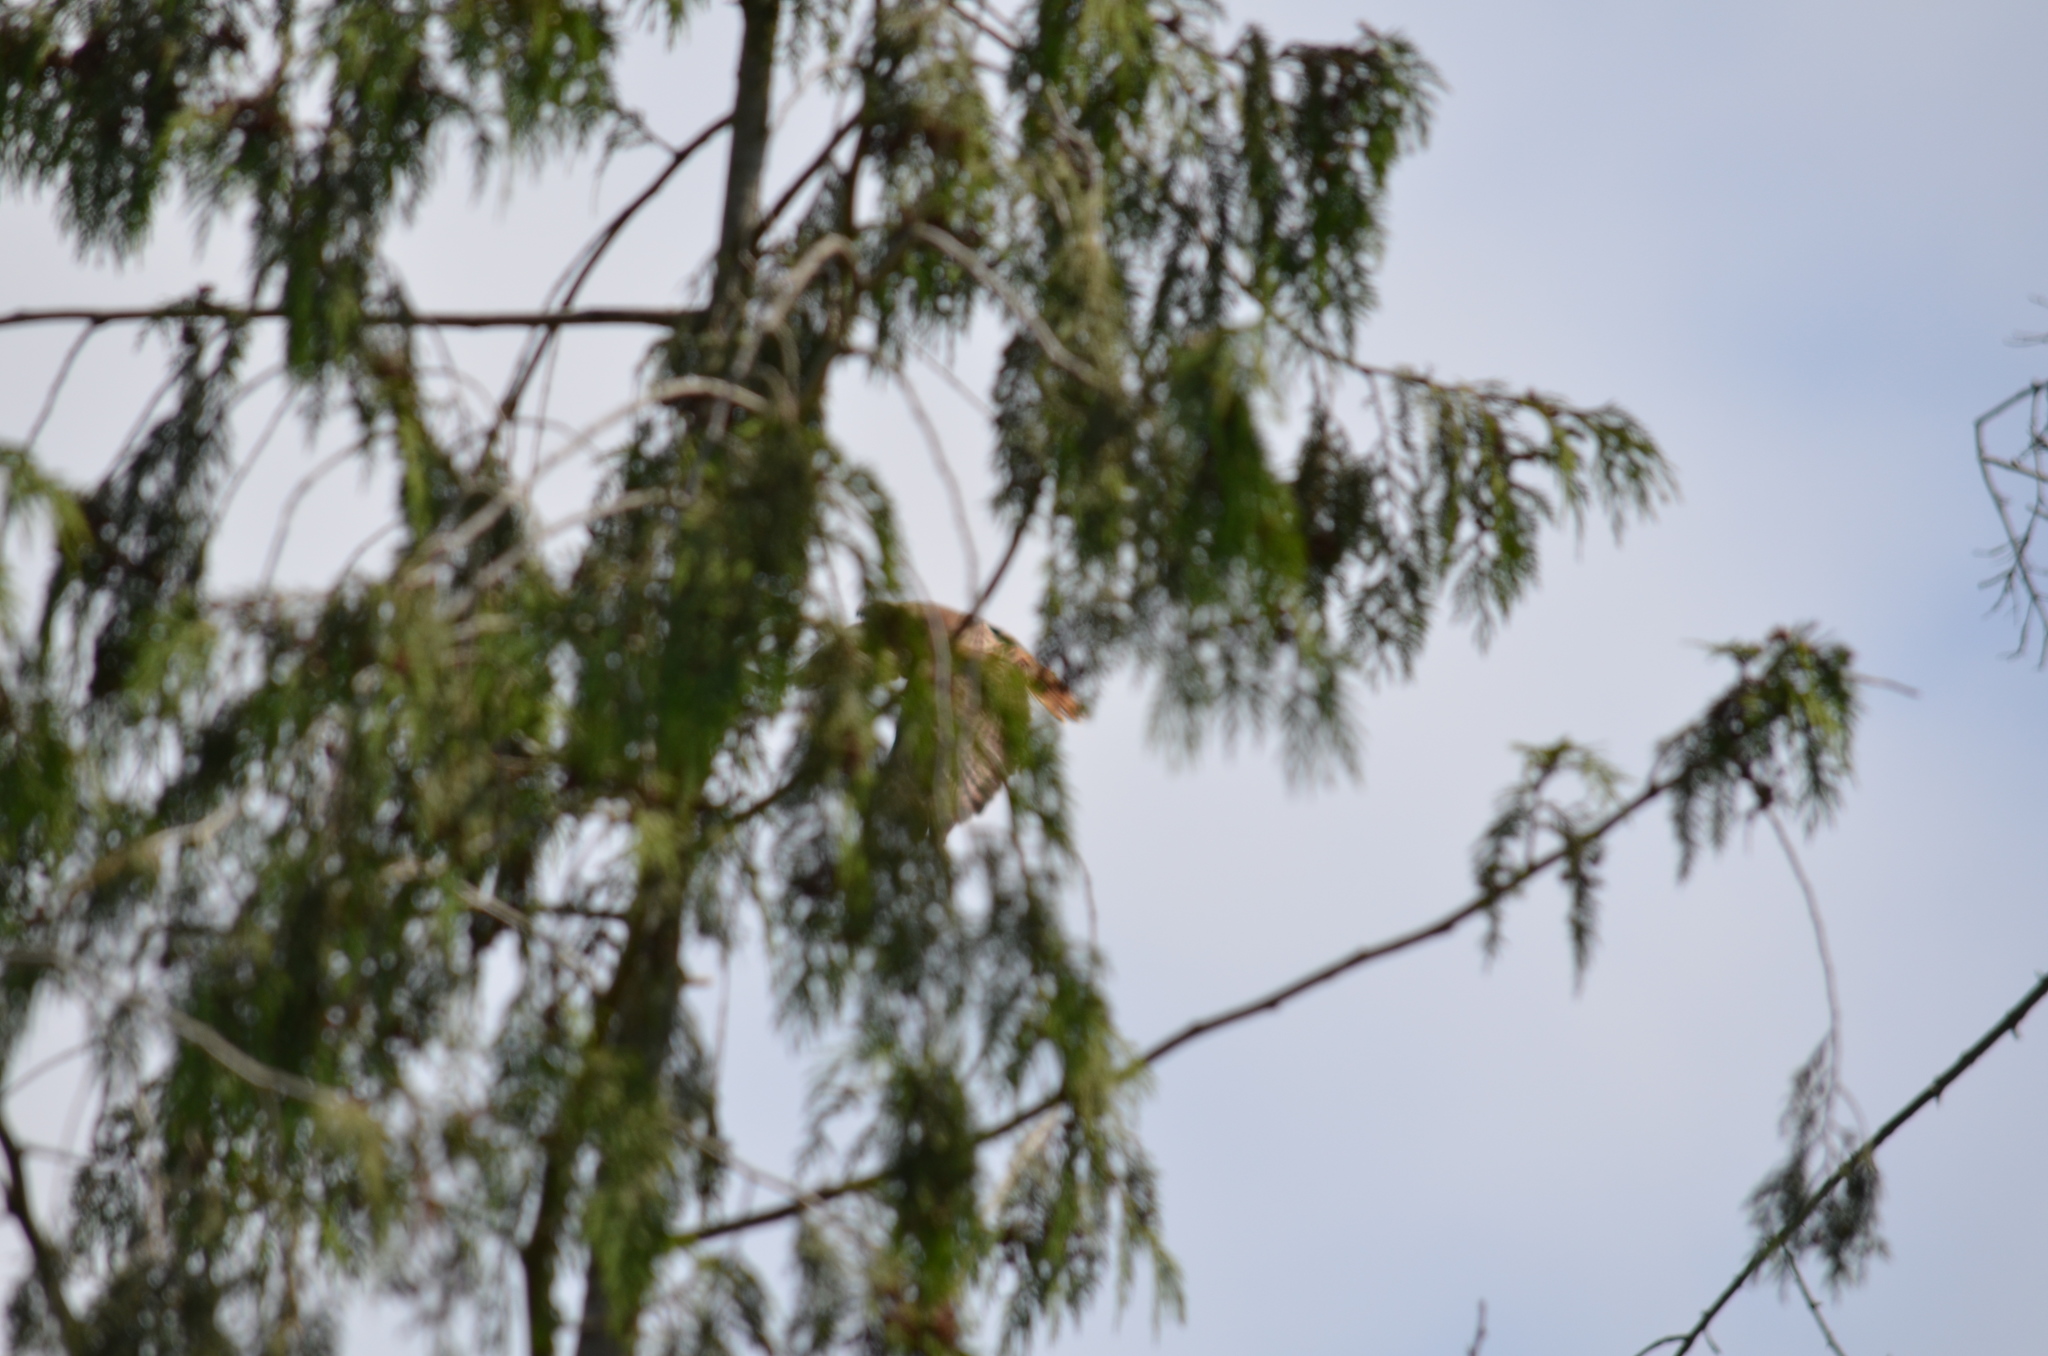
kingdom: Animalia
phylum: Chordata
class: Aves
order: Accipitriformes
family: Accipitridae
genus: Buteo
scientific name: Buteo jamaicensis
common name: Red-tailed hawk
